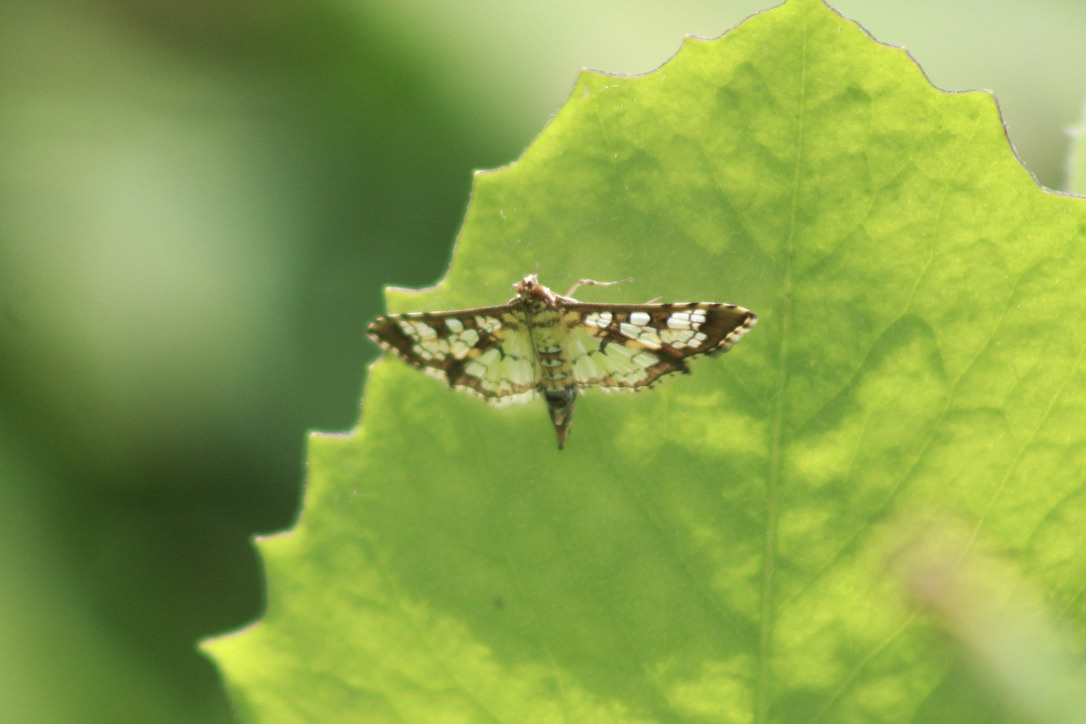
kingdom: Animalia
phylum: Arthropoda
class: Insecta
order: Lepidoptera
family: Crambidae
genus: Samea
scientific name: Samea ecclesialis
